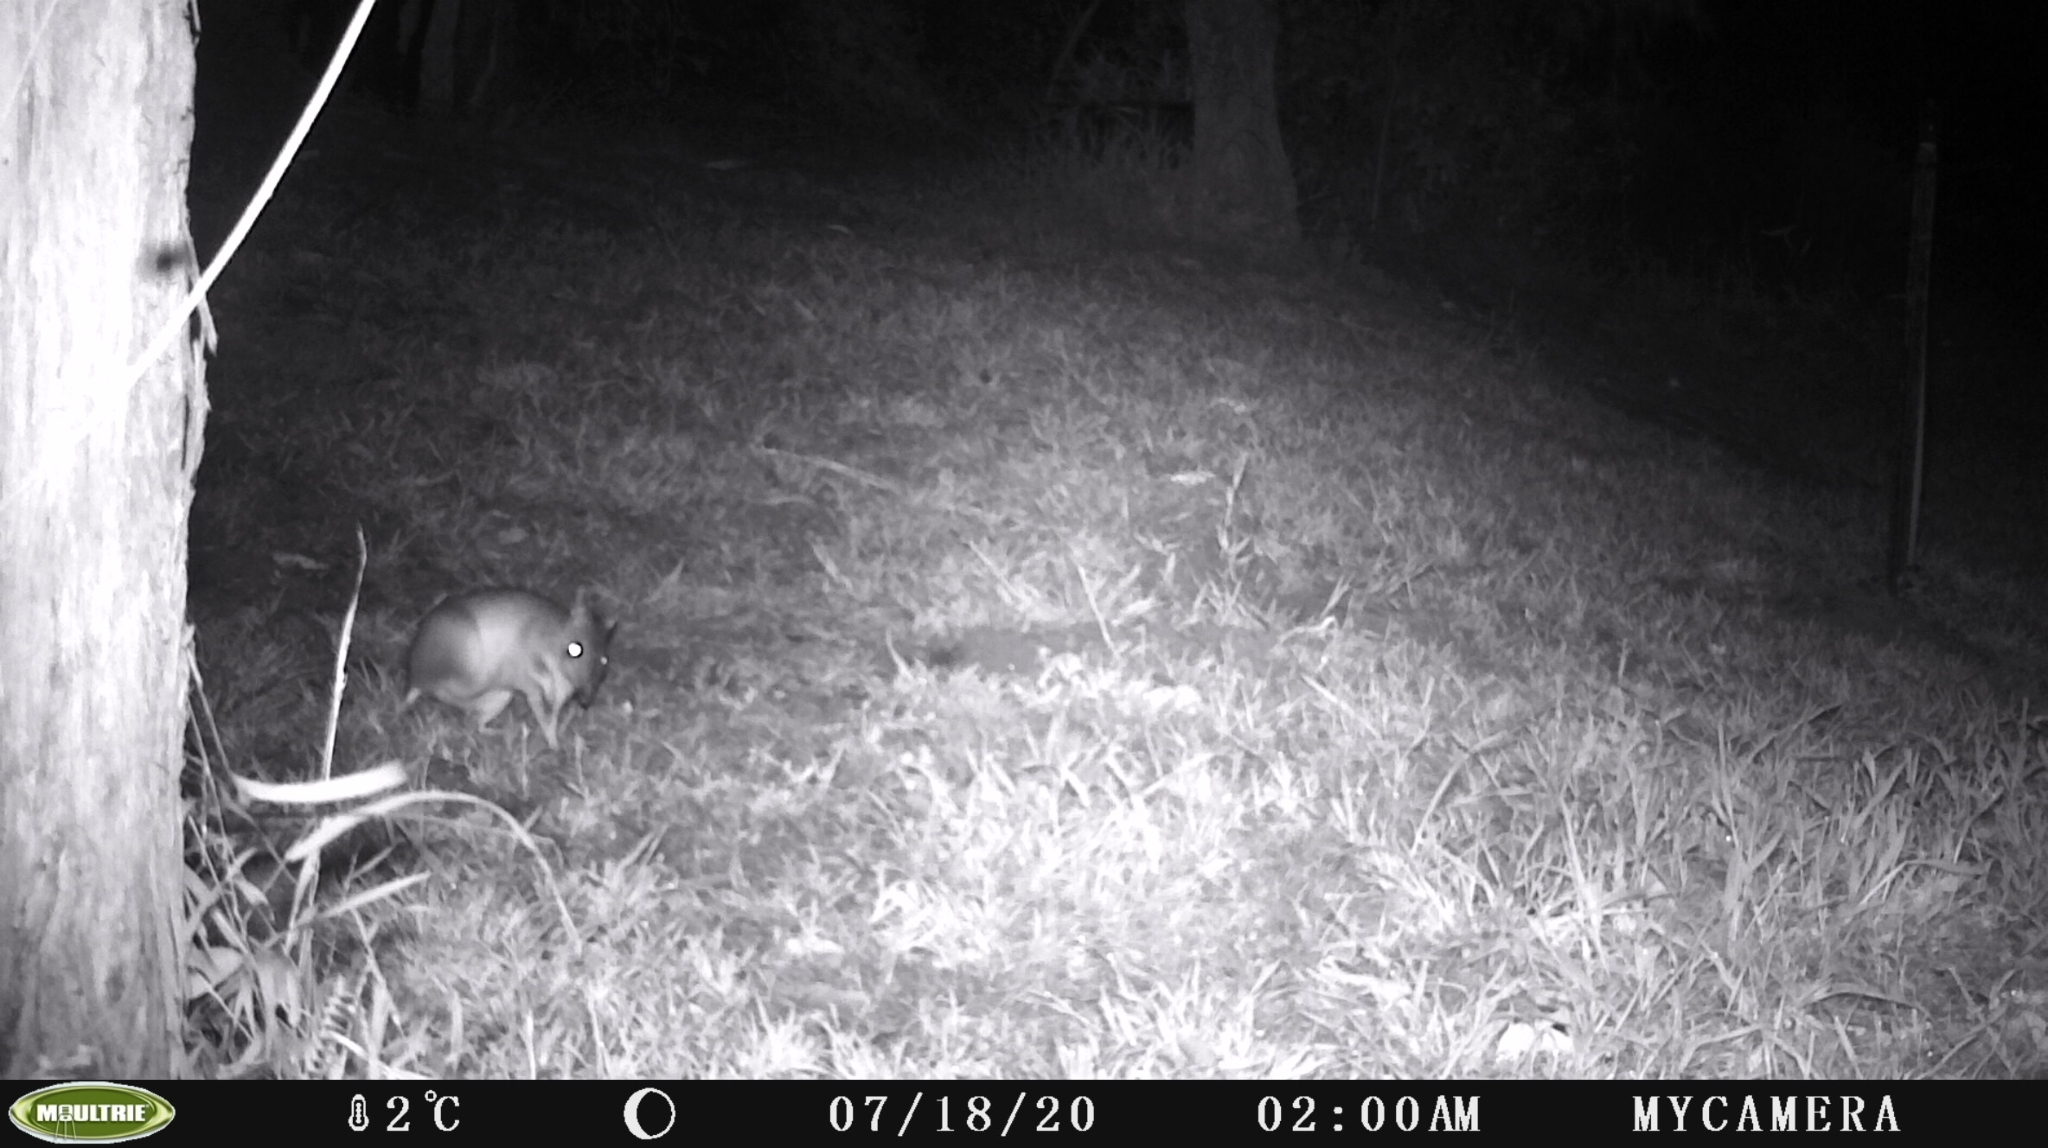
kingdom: Animalia
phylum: Chordata
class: Mammalia
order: Peramelemorphia
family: Peramelidae
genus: Perameles
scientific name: Perameles nasuta
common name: Long-nosed bandicoot
